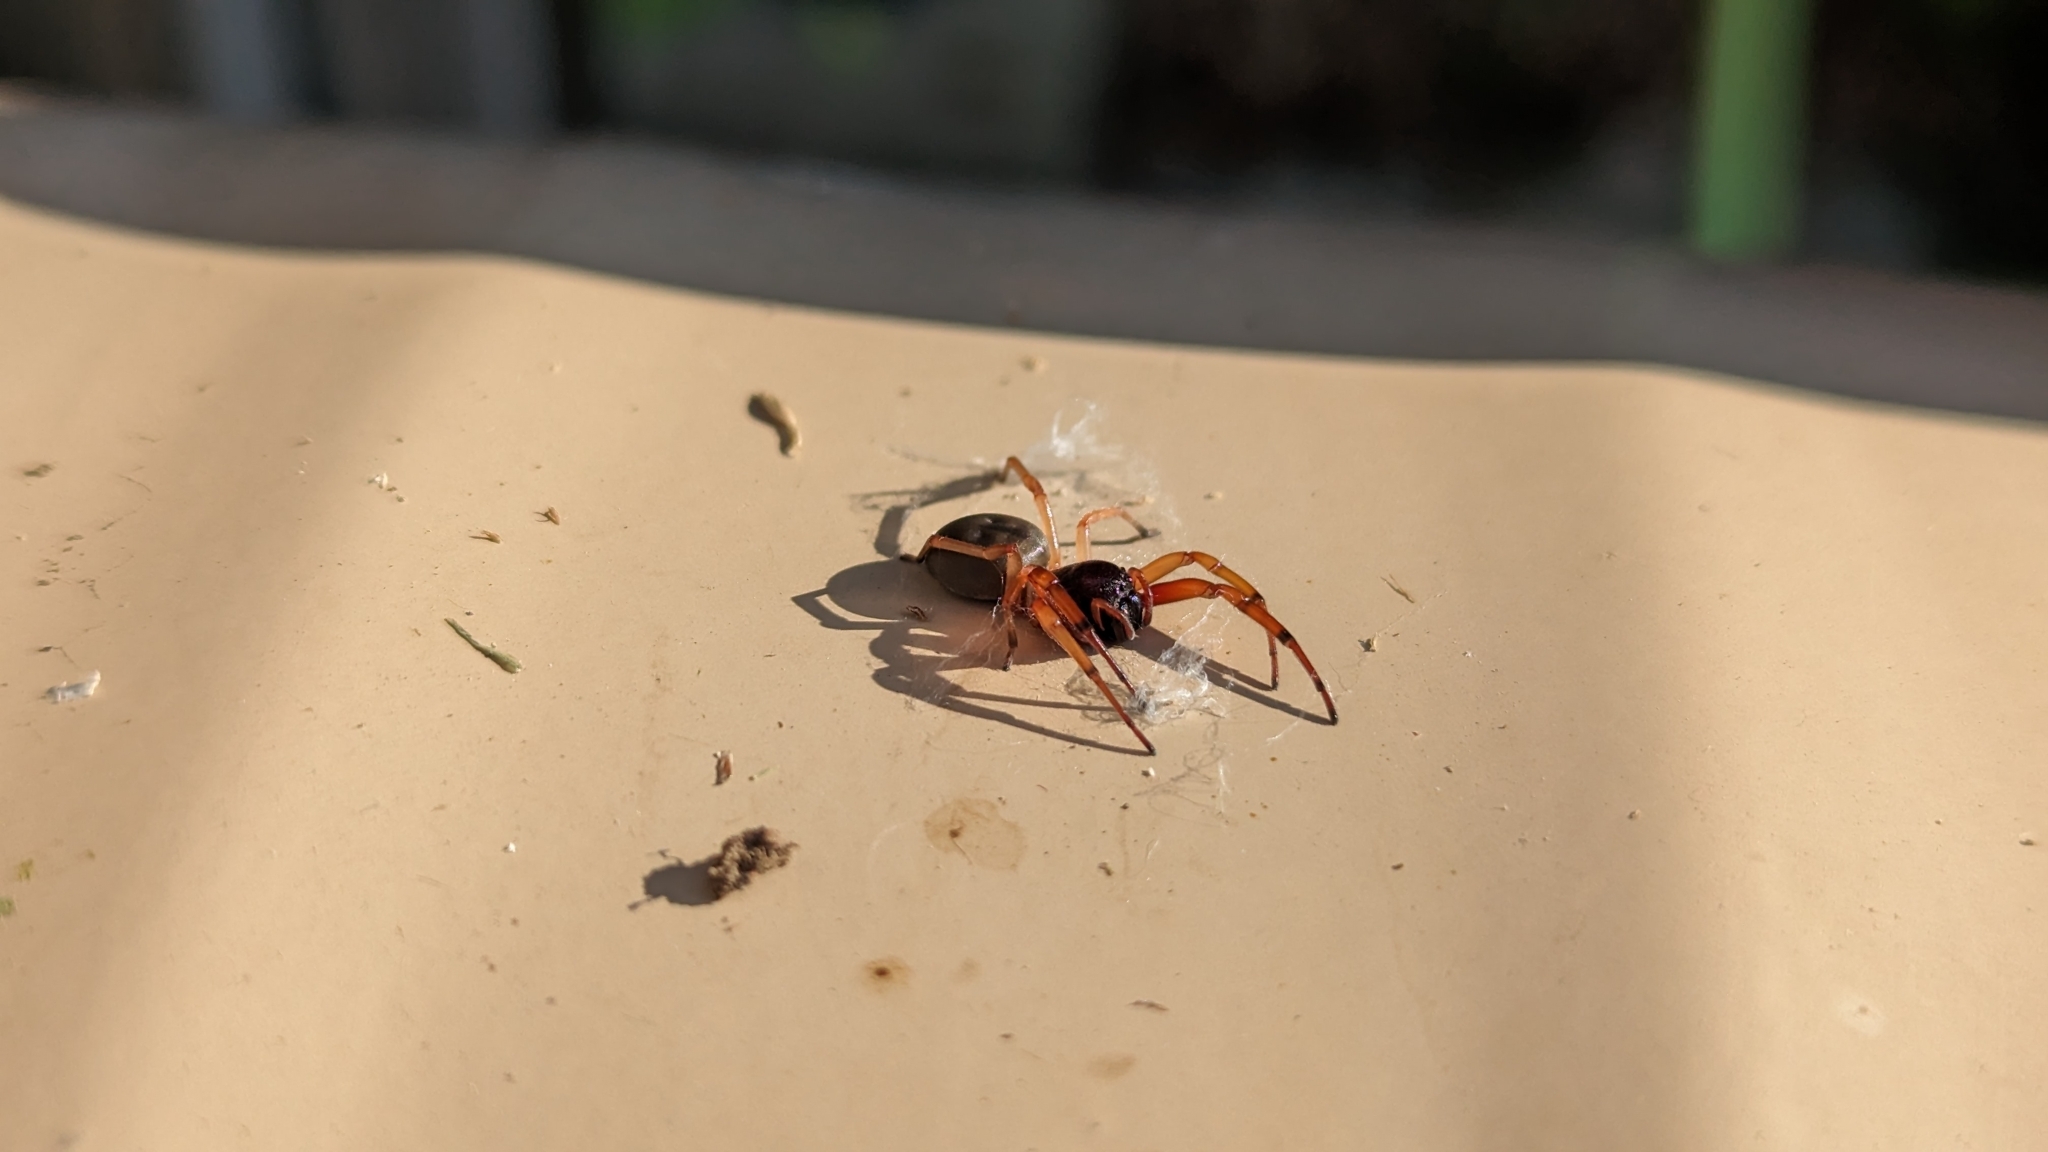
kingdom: Animalia
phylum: Arthropoda
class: Arachnida
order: Araneae
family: Trachelidae
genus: Trachelas
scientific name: Trachelas tranquillus
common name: Broad-faced sac spider
